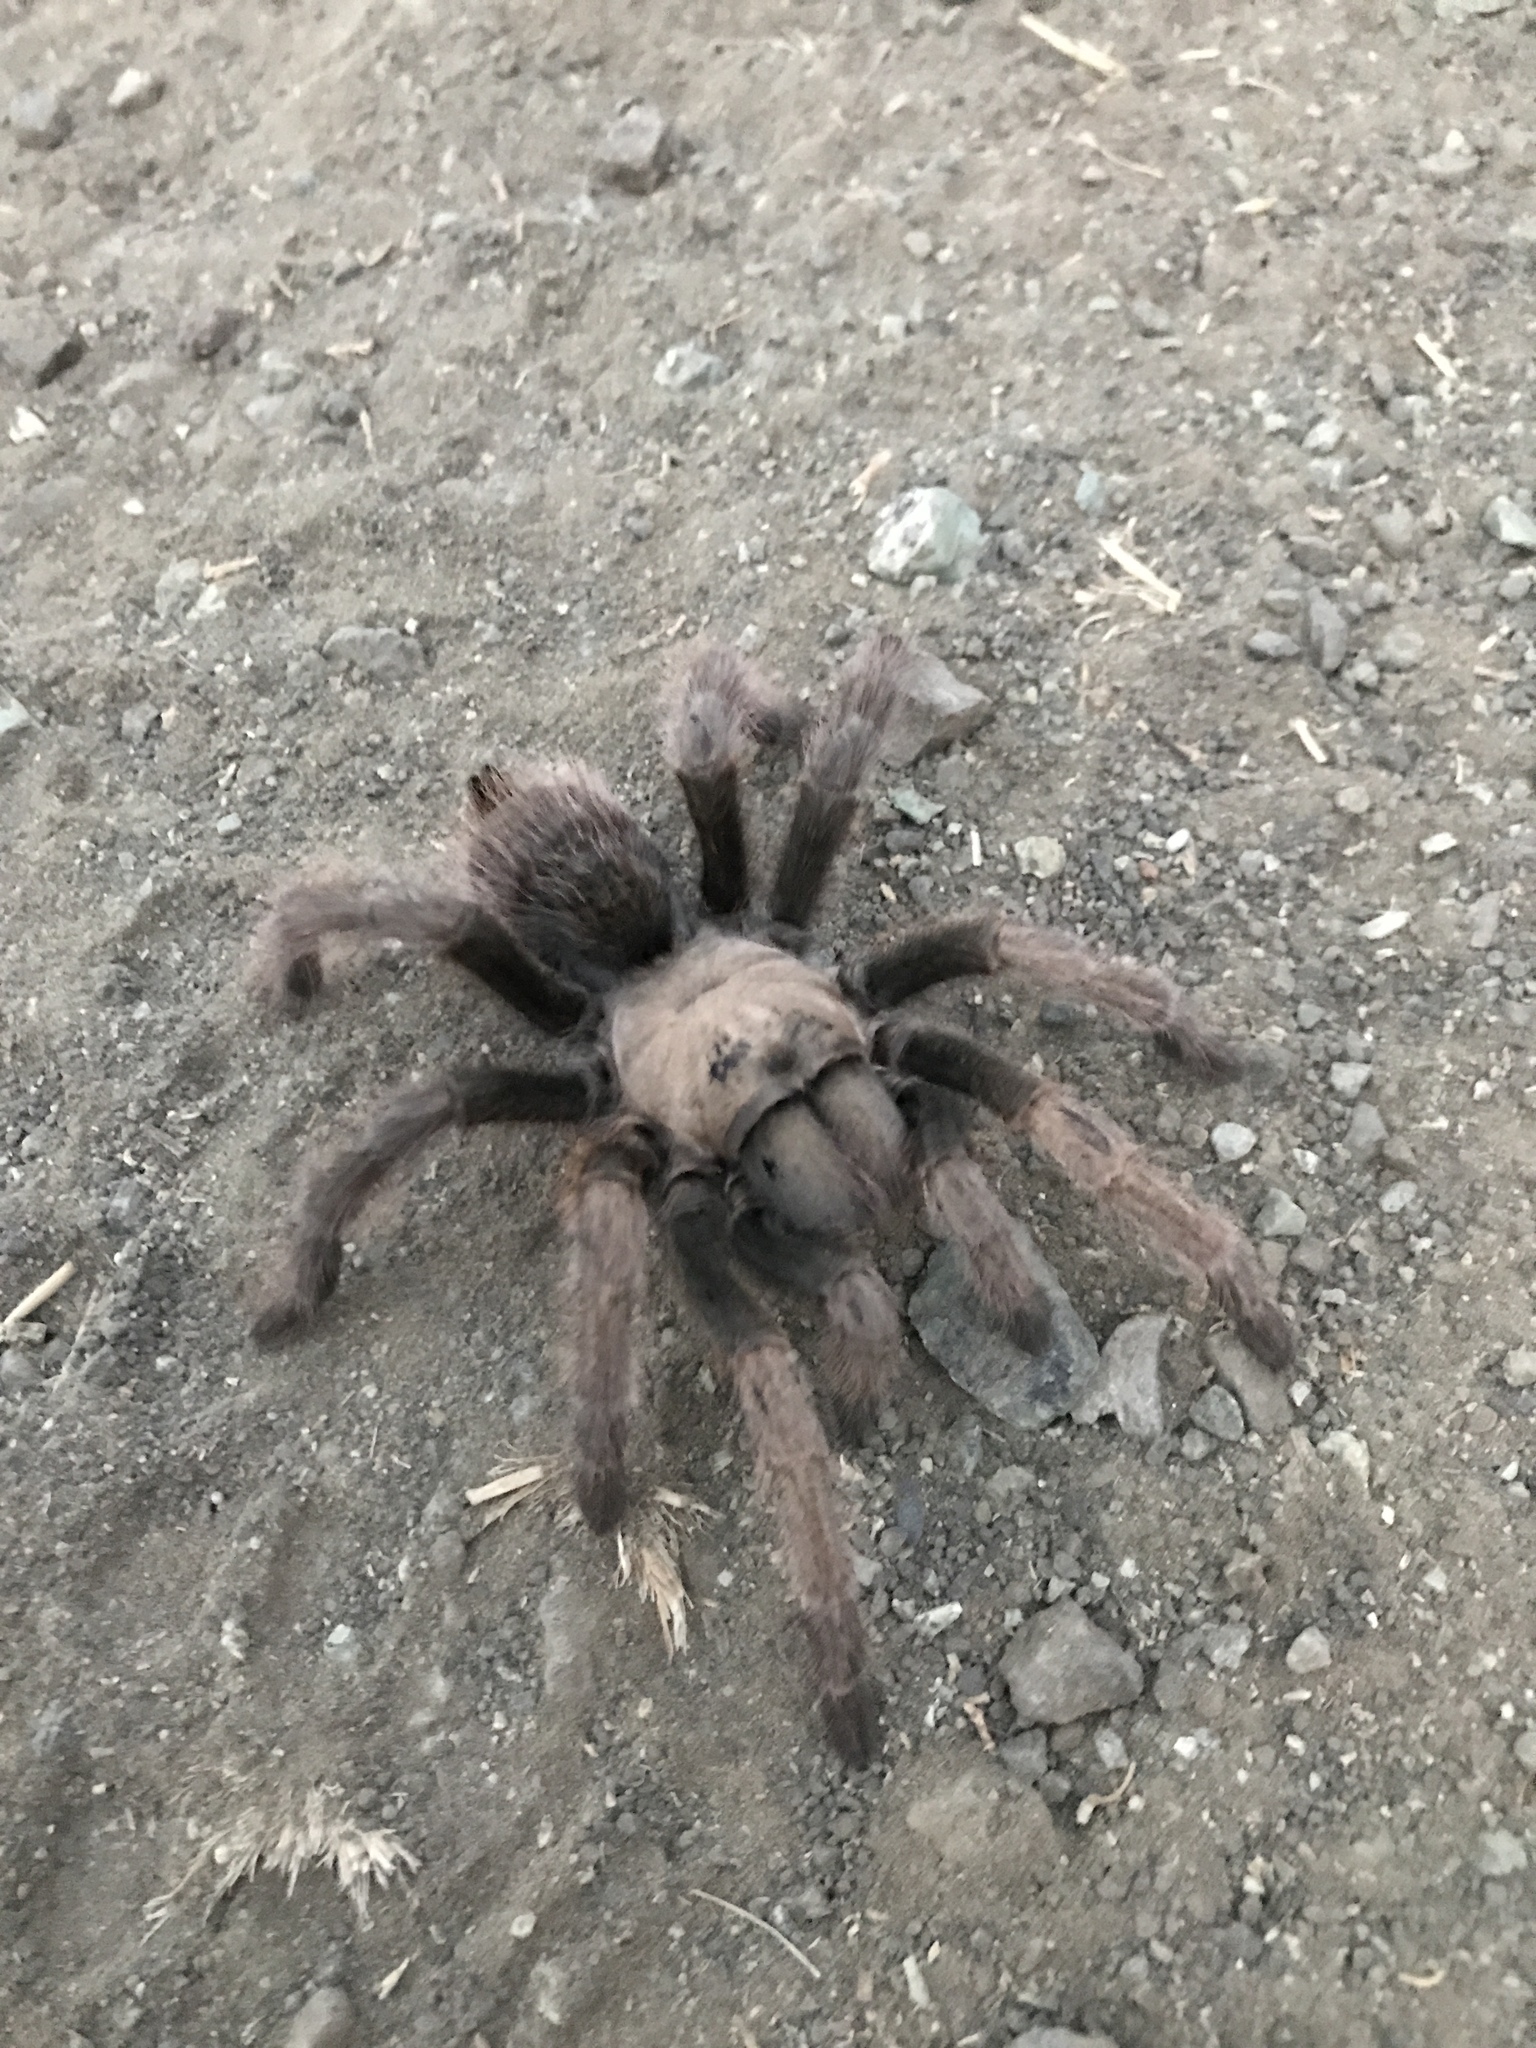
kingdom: Animalia
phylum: Arthropoda
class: Arachnida
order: Araneae
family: Theraphosidae
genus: Aphonopelma
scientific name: Aphonopelma iodius
